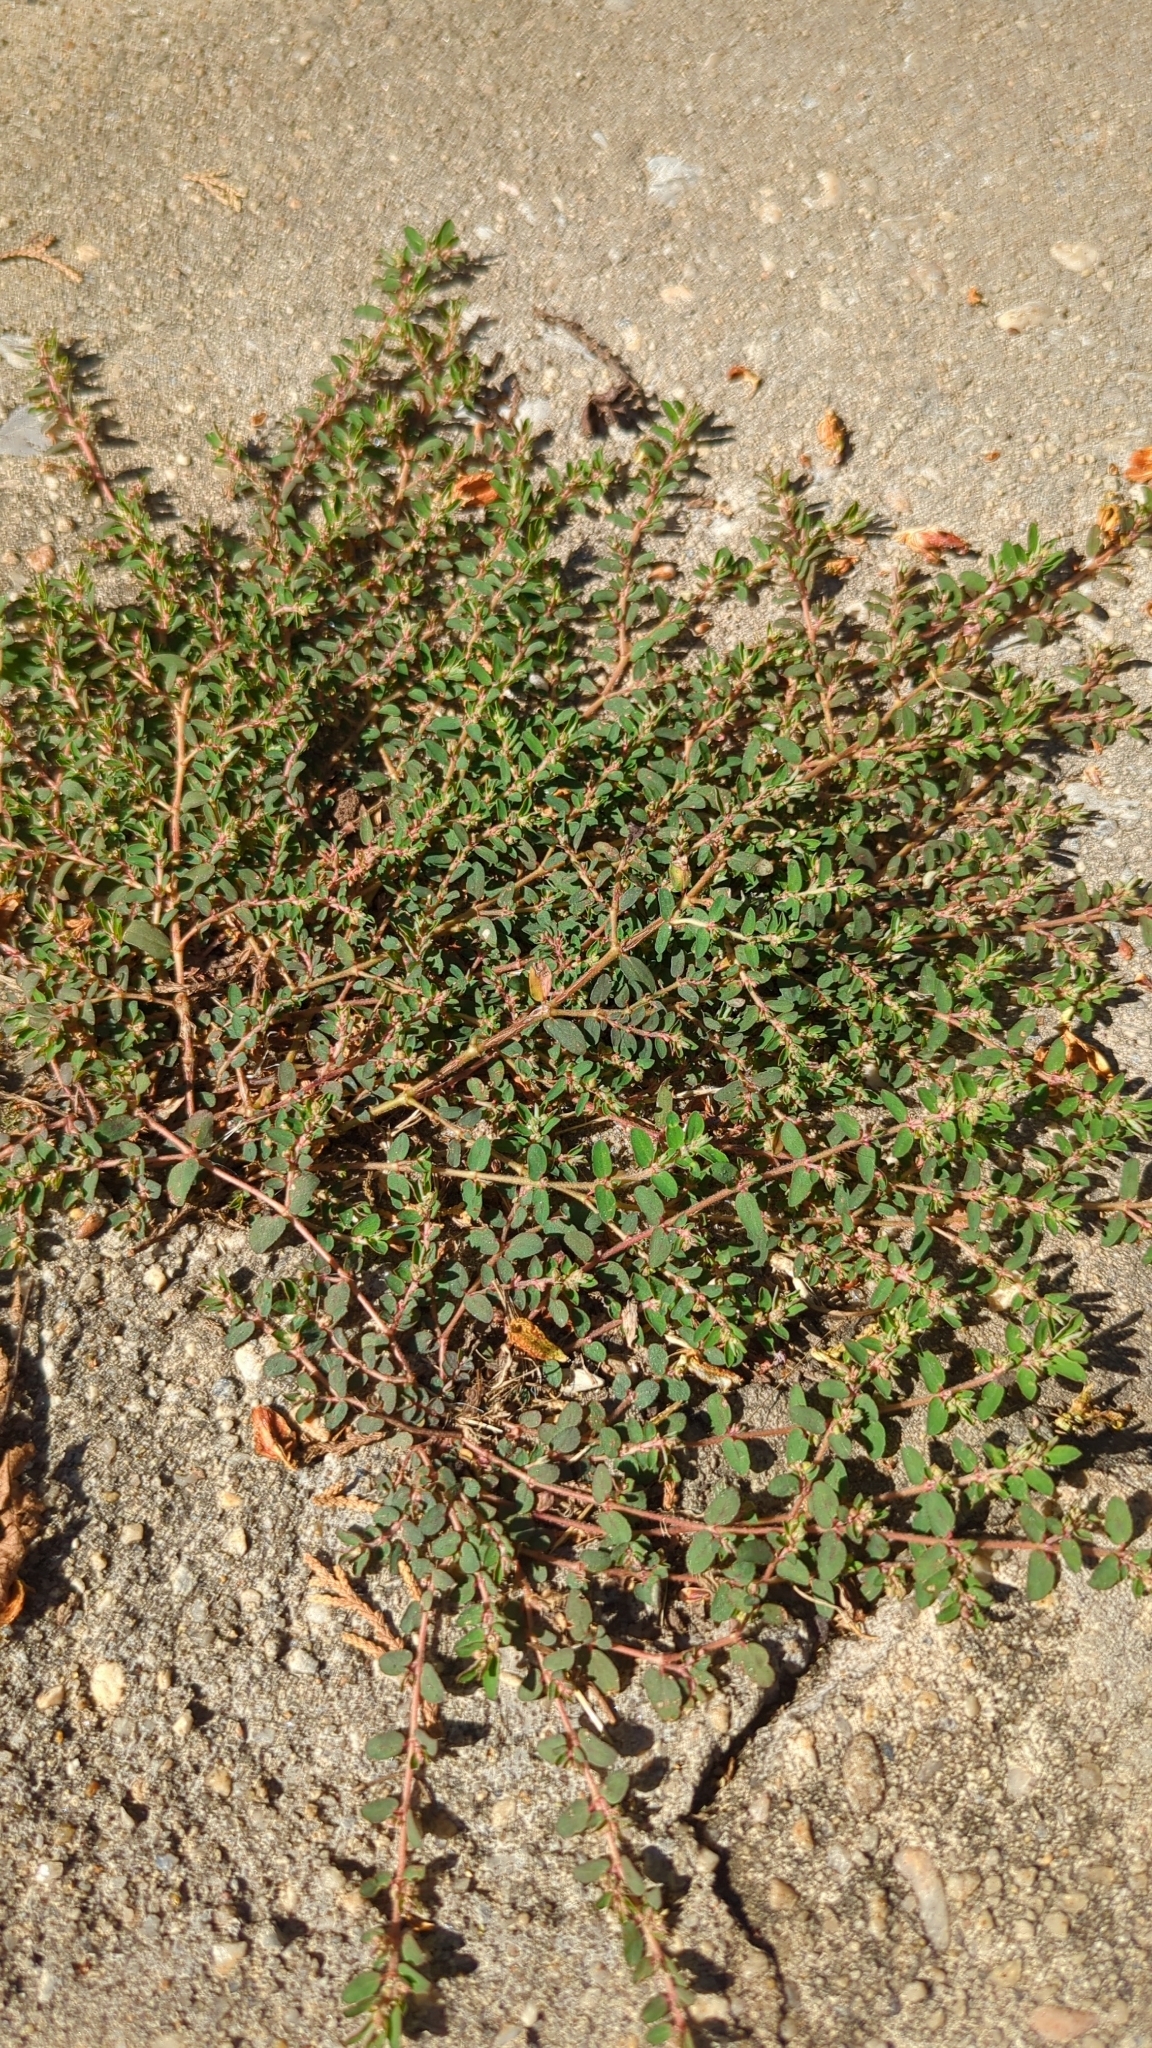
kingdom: Plantae
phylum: Tracheophyta
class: Magnoliopsida
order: Malpighiales
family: Euphorbiaceae
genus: Euphorbia
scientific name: Euphorbia maculata
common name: Spotted spurge
